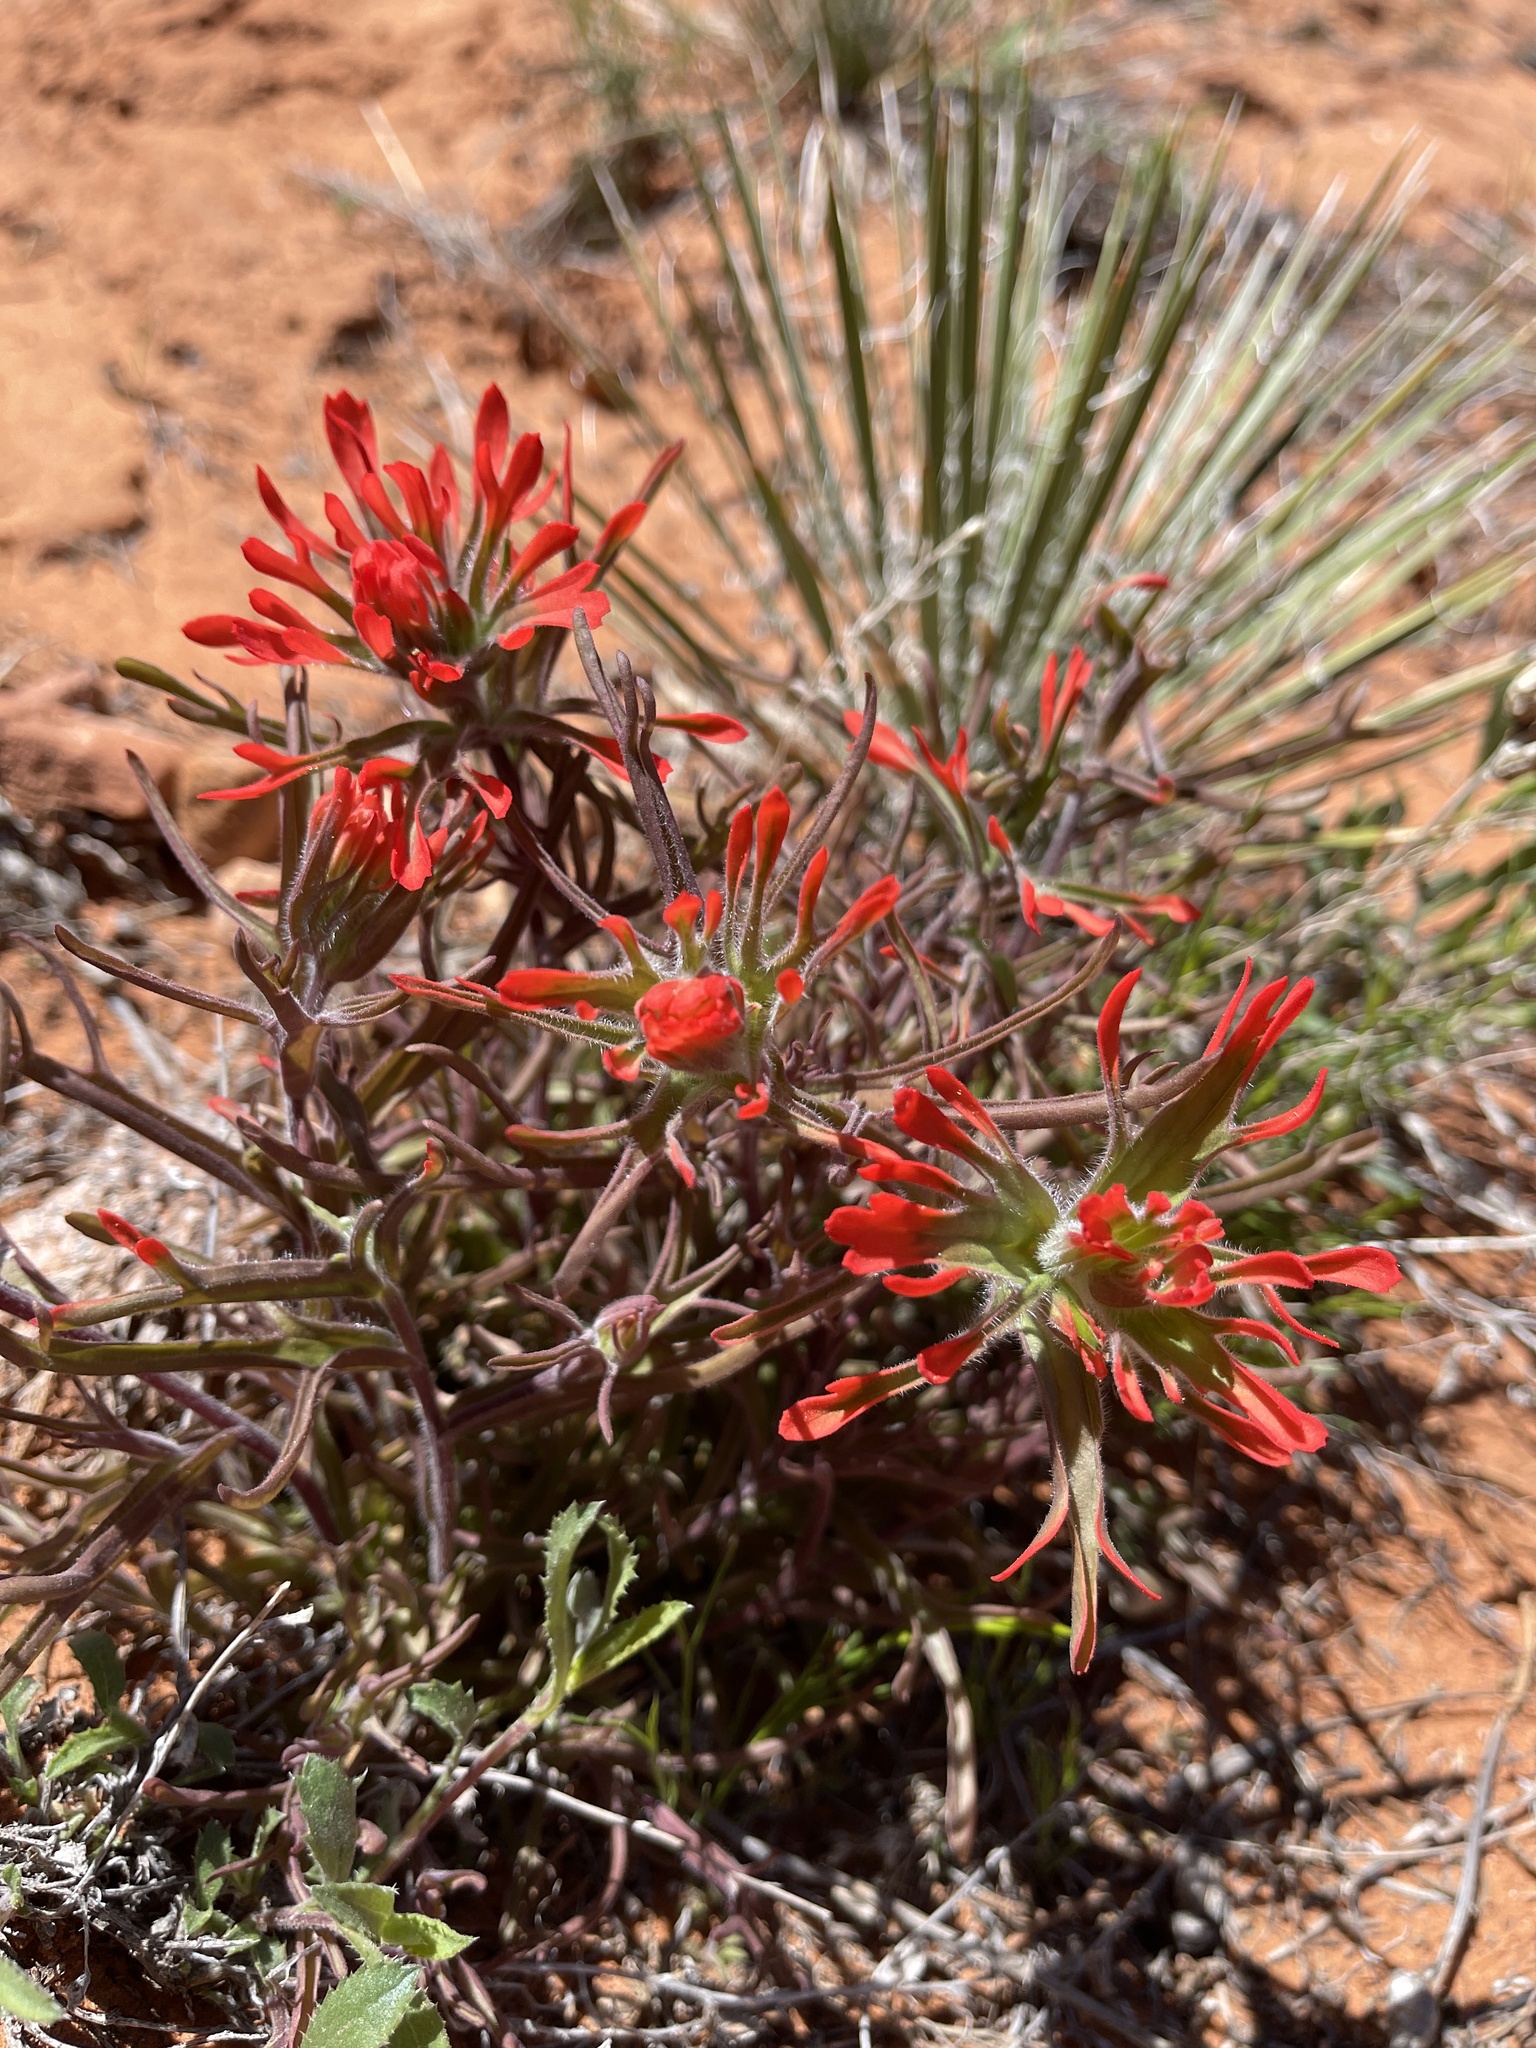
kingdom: Plantae
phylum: Tracheophyta
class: Magnoliopsida
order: Lamiales
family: Orobanchaceae
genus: Castilleja
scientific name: Castilleja chromosa
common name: Desert paintbrush
